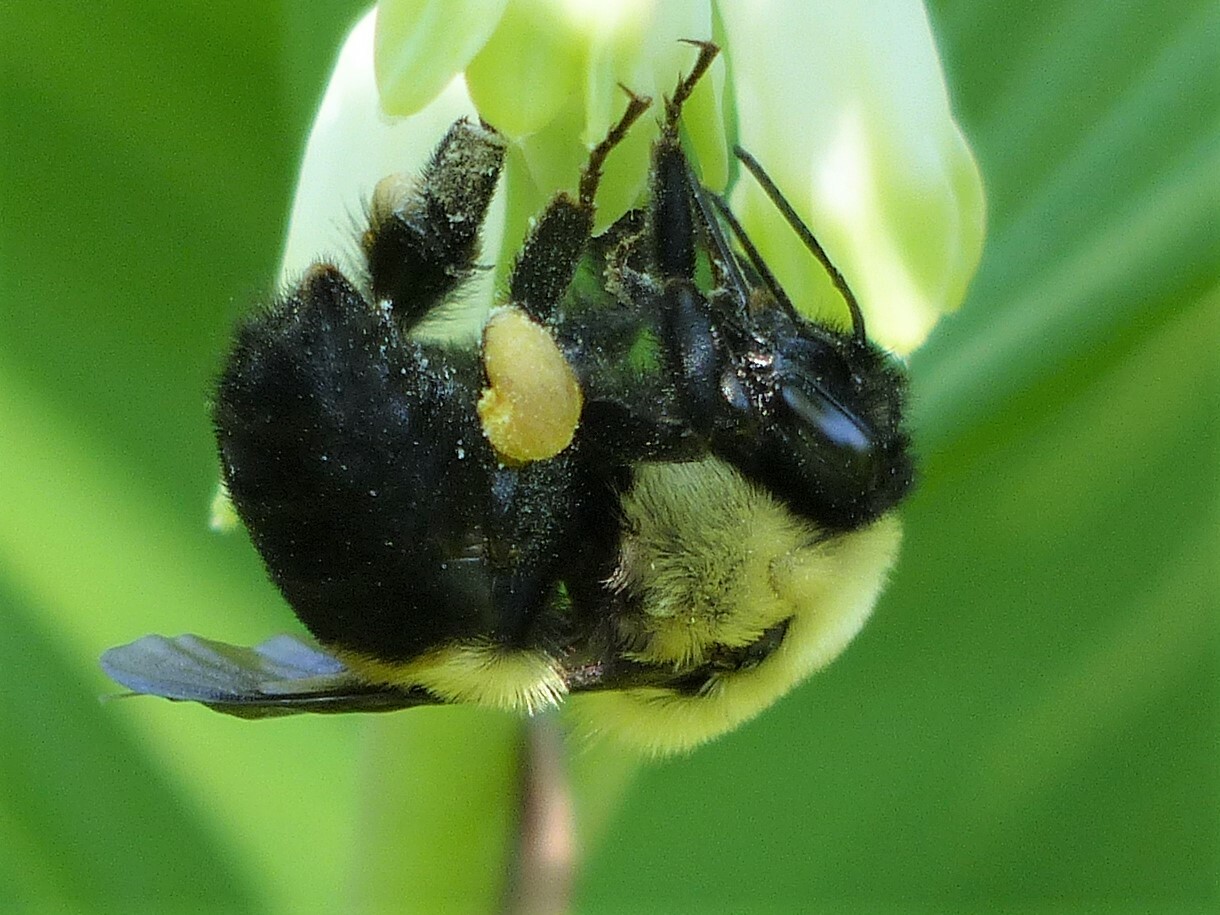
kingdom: Animalia
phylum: Arthropoda
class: Insecta
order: Hymenoptera
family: Apidae
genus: Bombus
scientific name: Bombus griseocollis
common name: Brown-belted bumble bee
